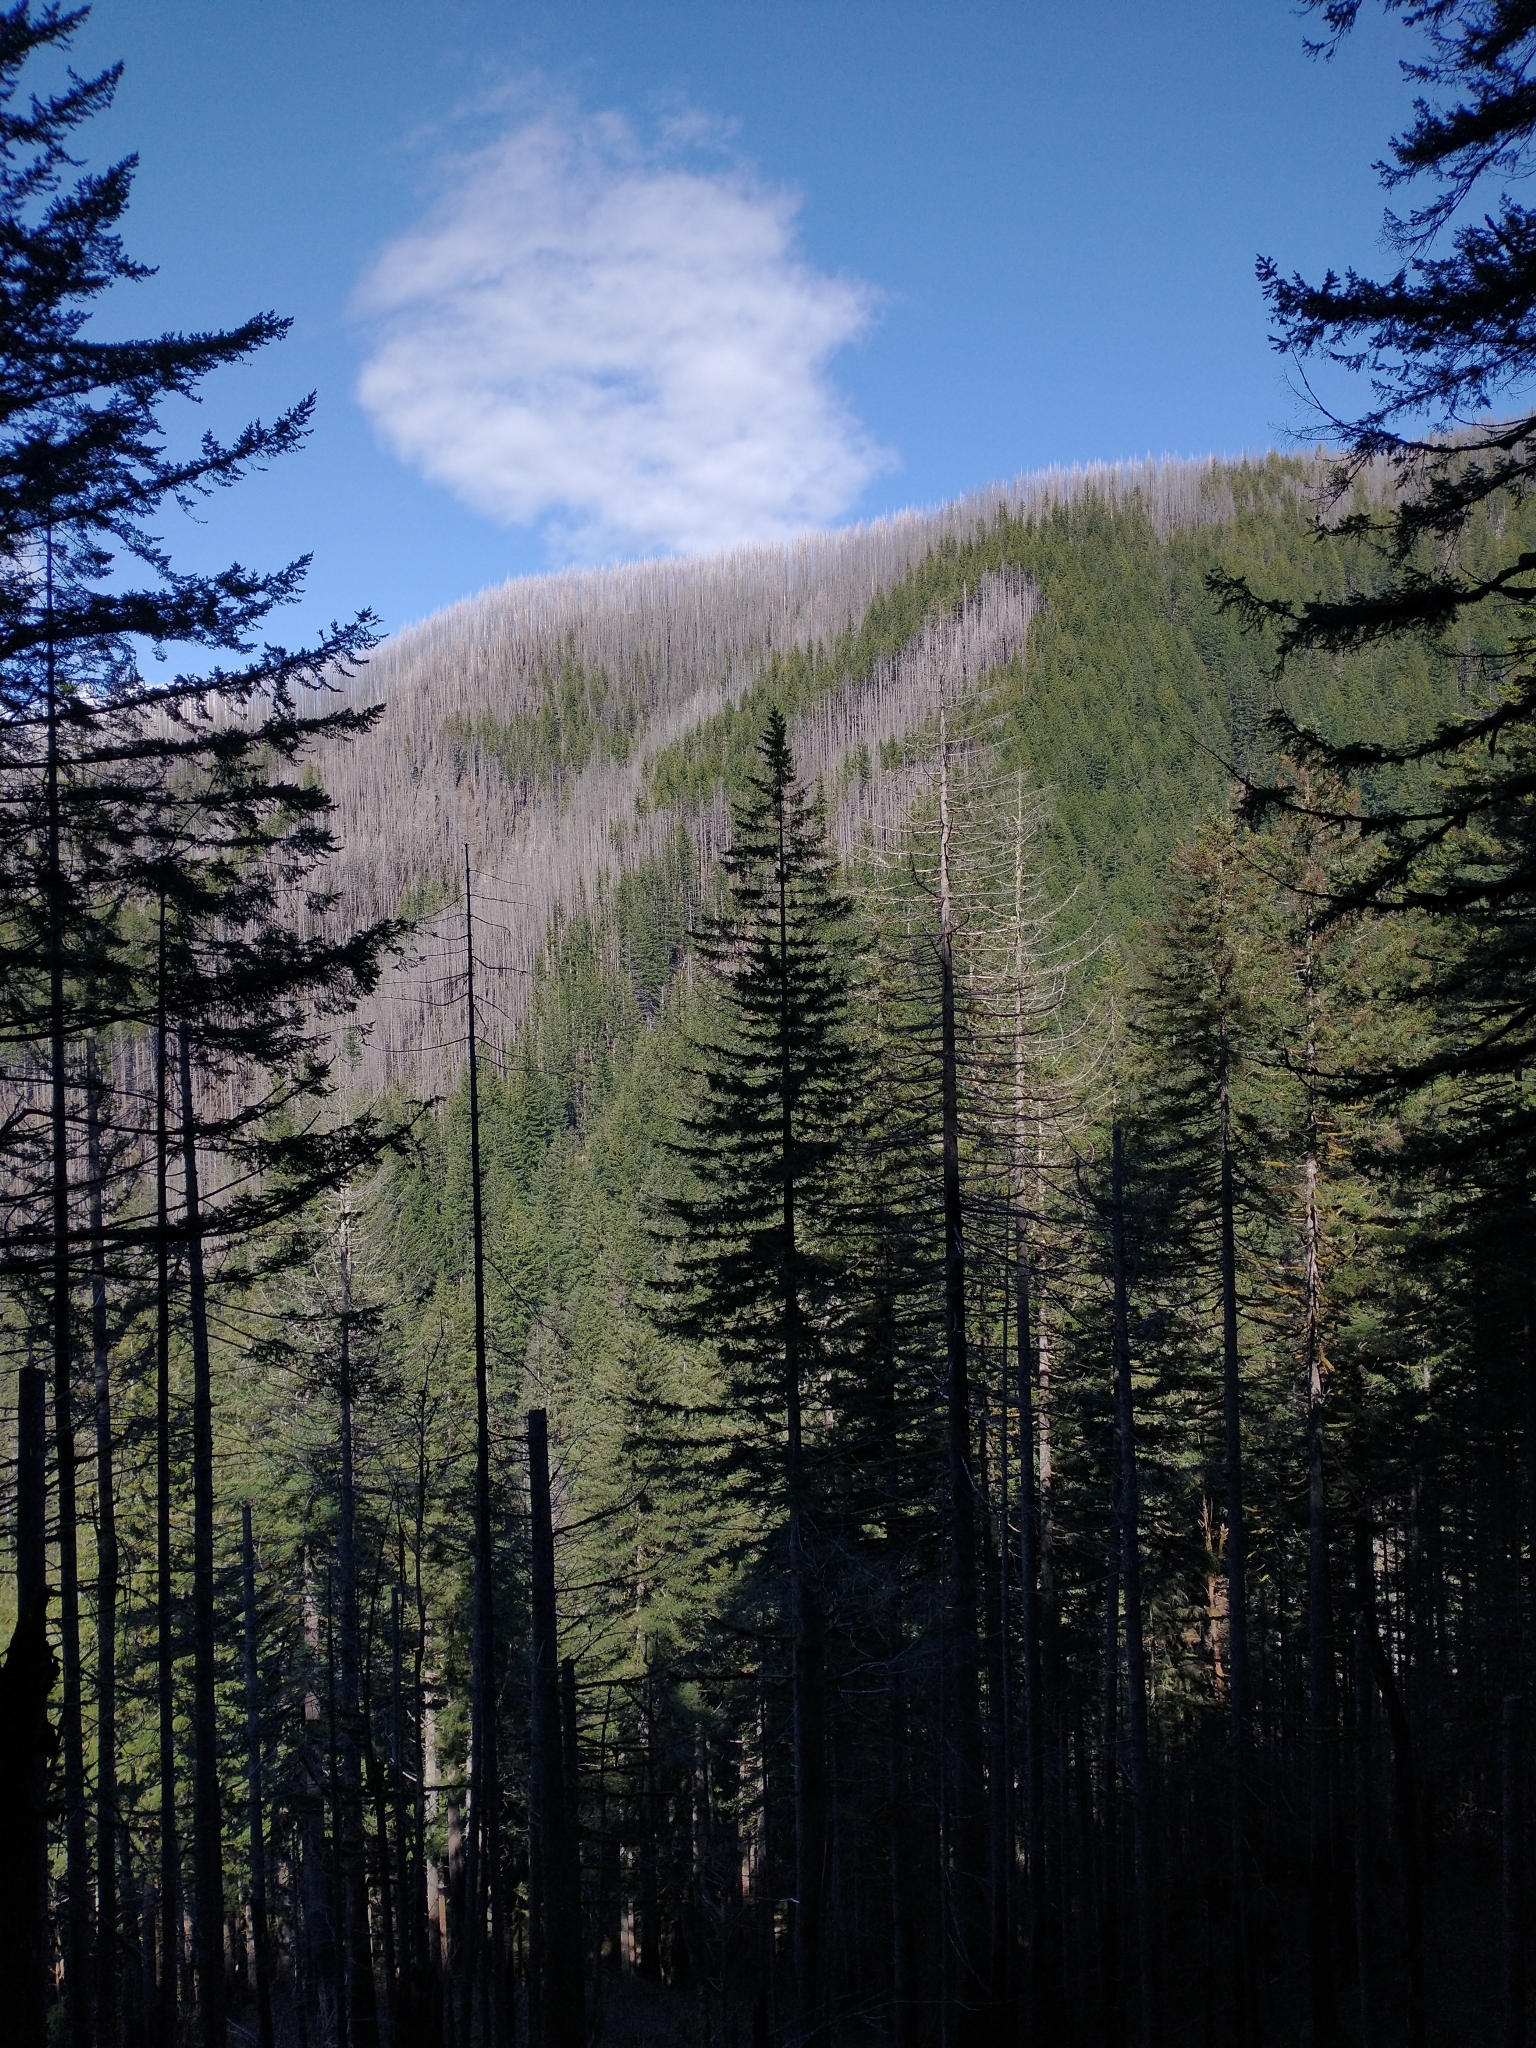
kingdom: Plantae
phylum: Tracheophyta
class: Pinopsida
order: Pinales
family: Pinaceae
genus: Pseudotsuga
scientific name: Pseudotsuga menziesii
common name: Douglas fir
